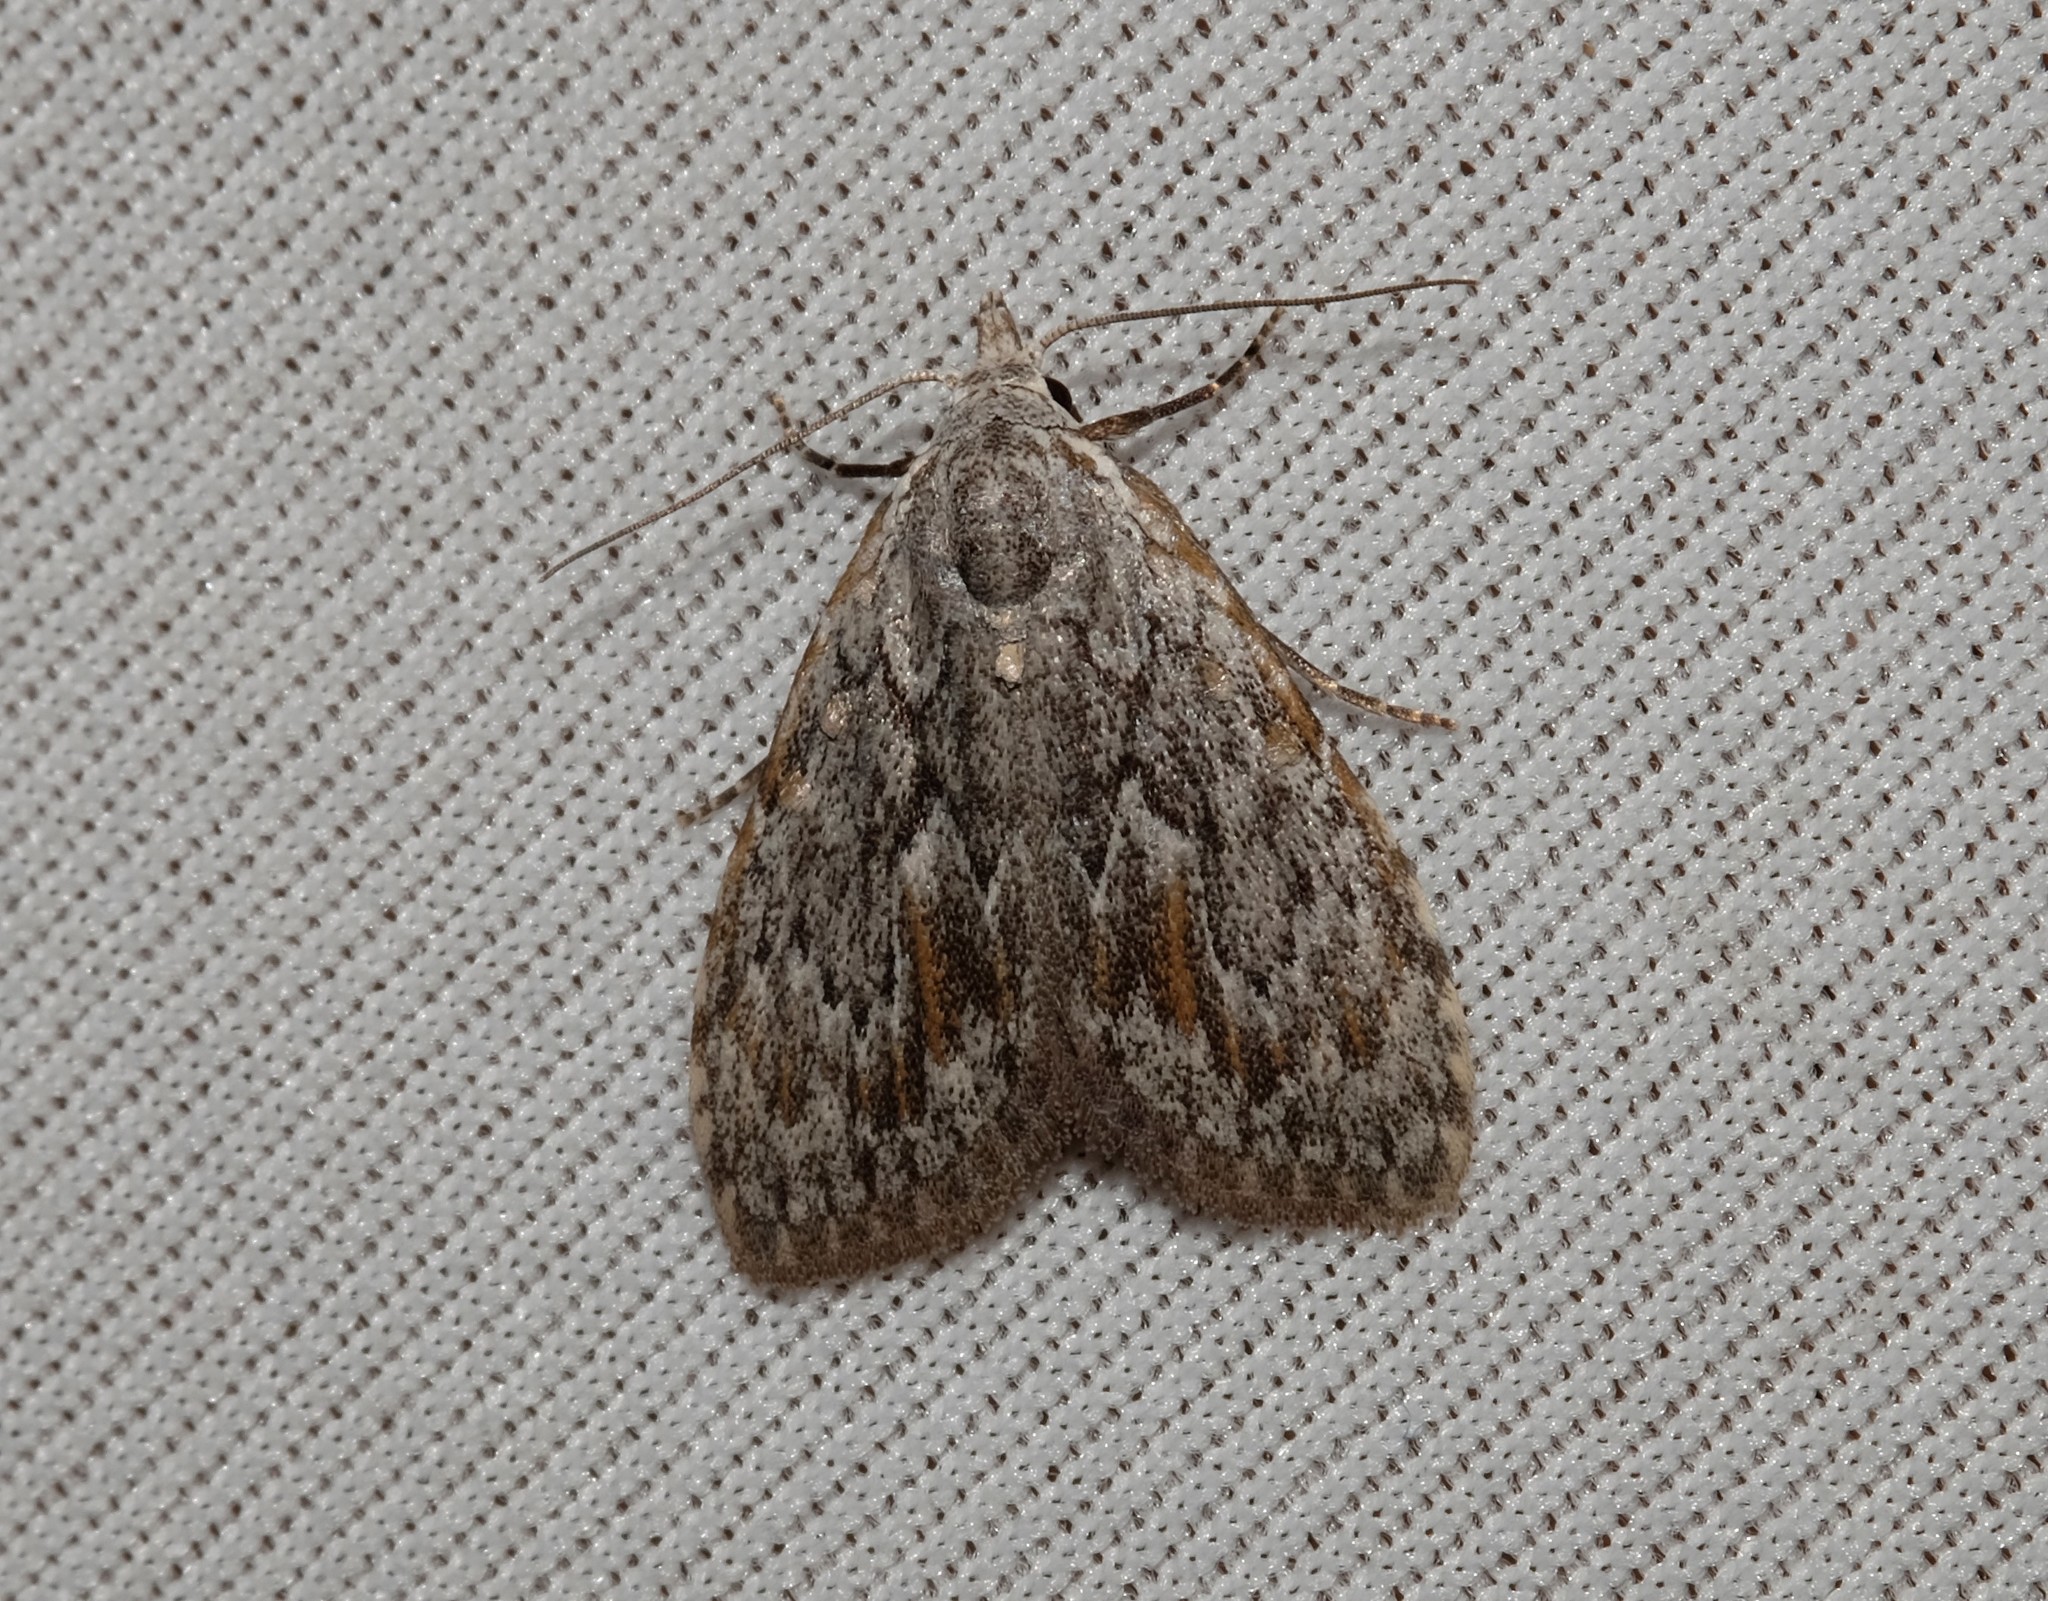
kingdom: Animalia
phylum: Arthropoda
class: Insecta
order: Lepidoptera
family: Nolidae
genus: Nola
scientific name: Nola crucigera
